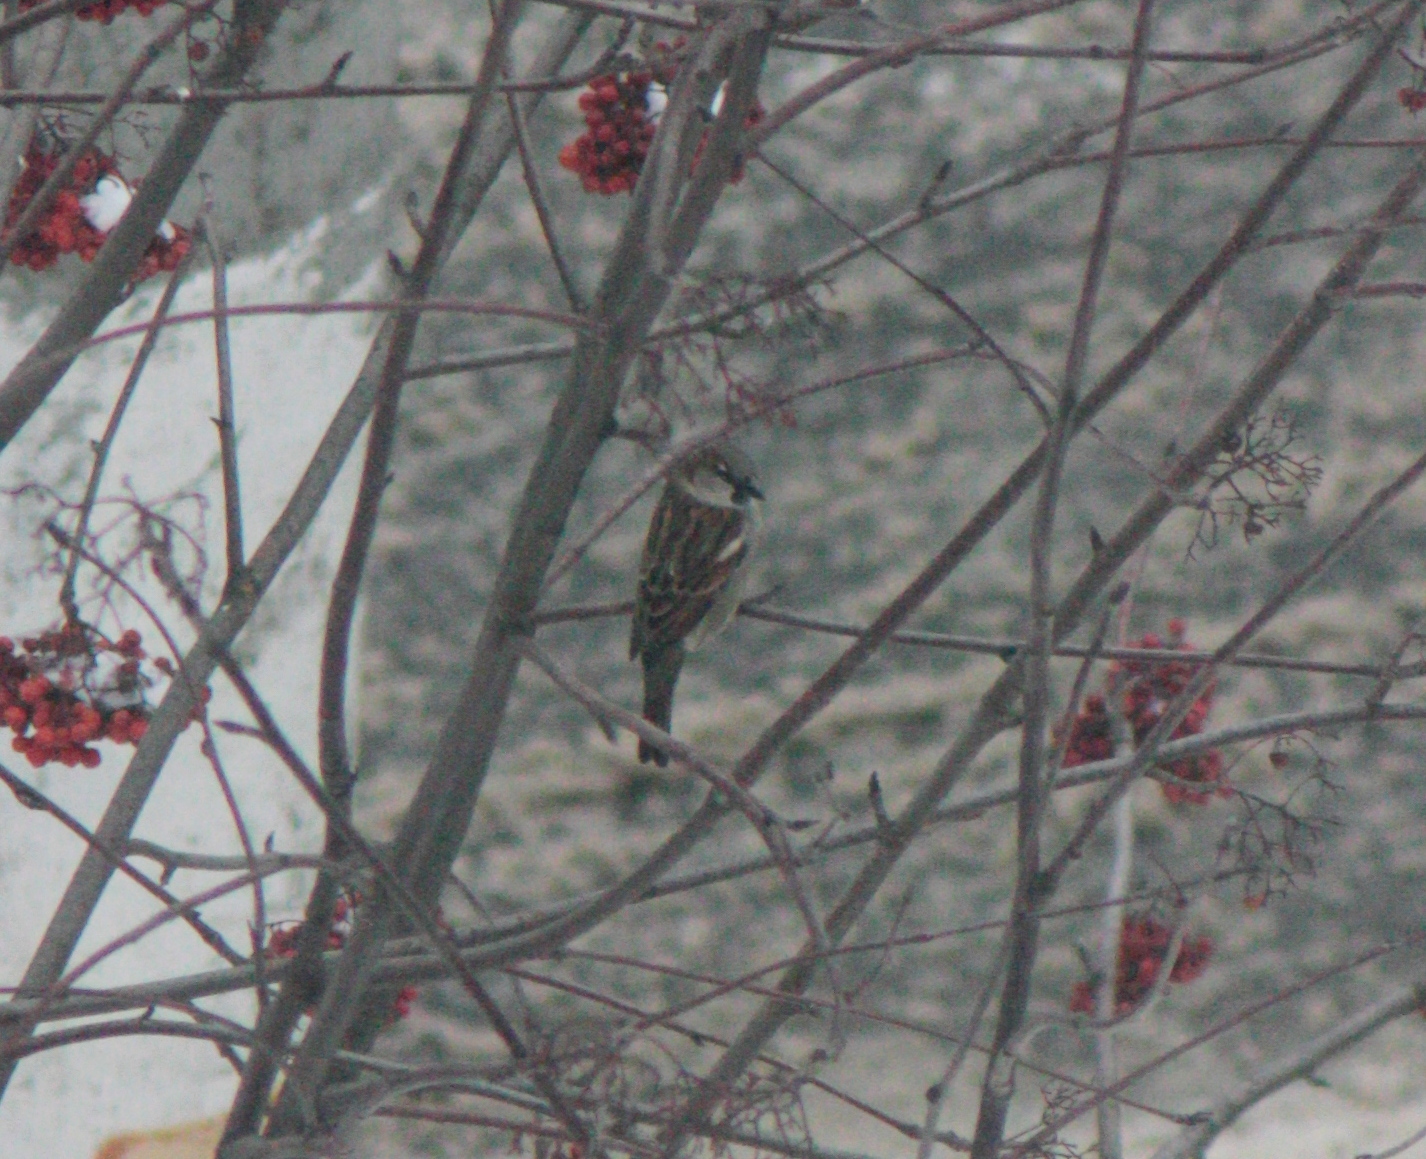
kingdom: Animalia
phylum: Chordata
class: Aves
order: Passeriformes
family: Passeridae
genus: Passer
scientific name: Passer domesticus
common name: House sparrow
